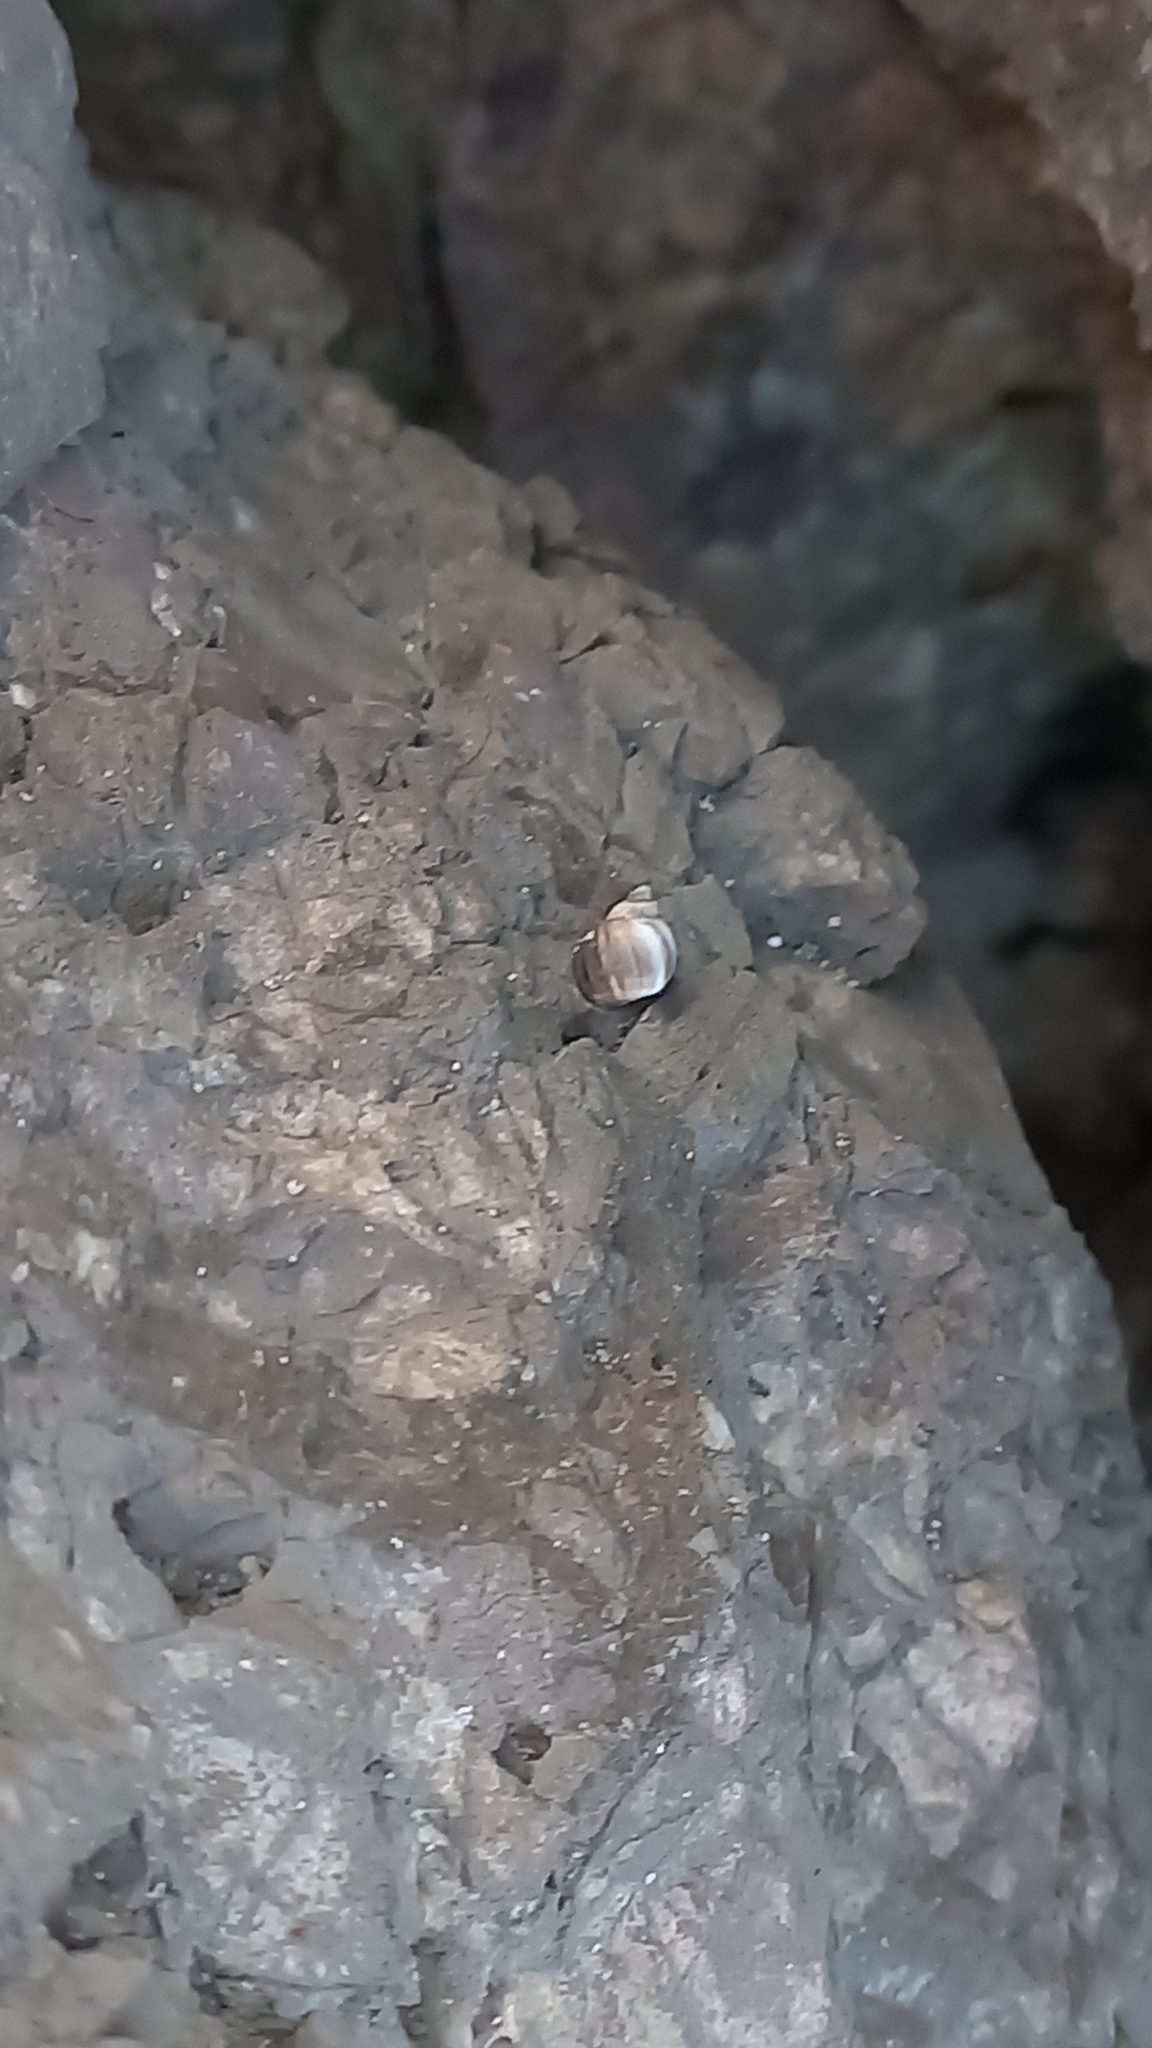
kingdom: Animalia
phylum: Mollusca
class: Gastropoda
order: Littorinimorpha
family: Littorinidae
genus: Melarhaphe
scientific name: Melarhaphe neritoides
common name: Small periwinkle
